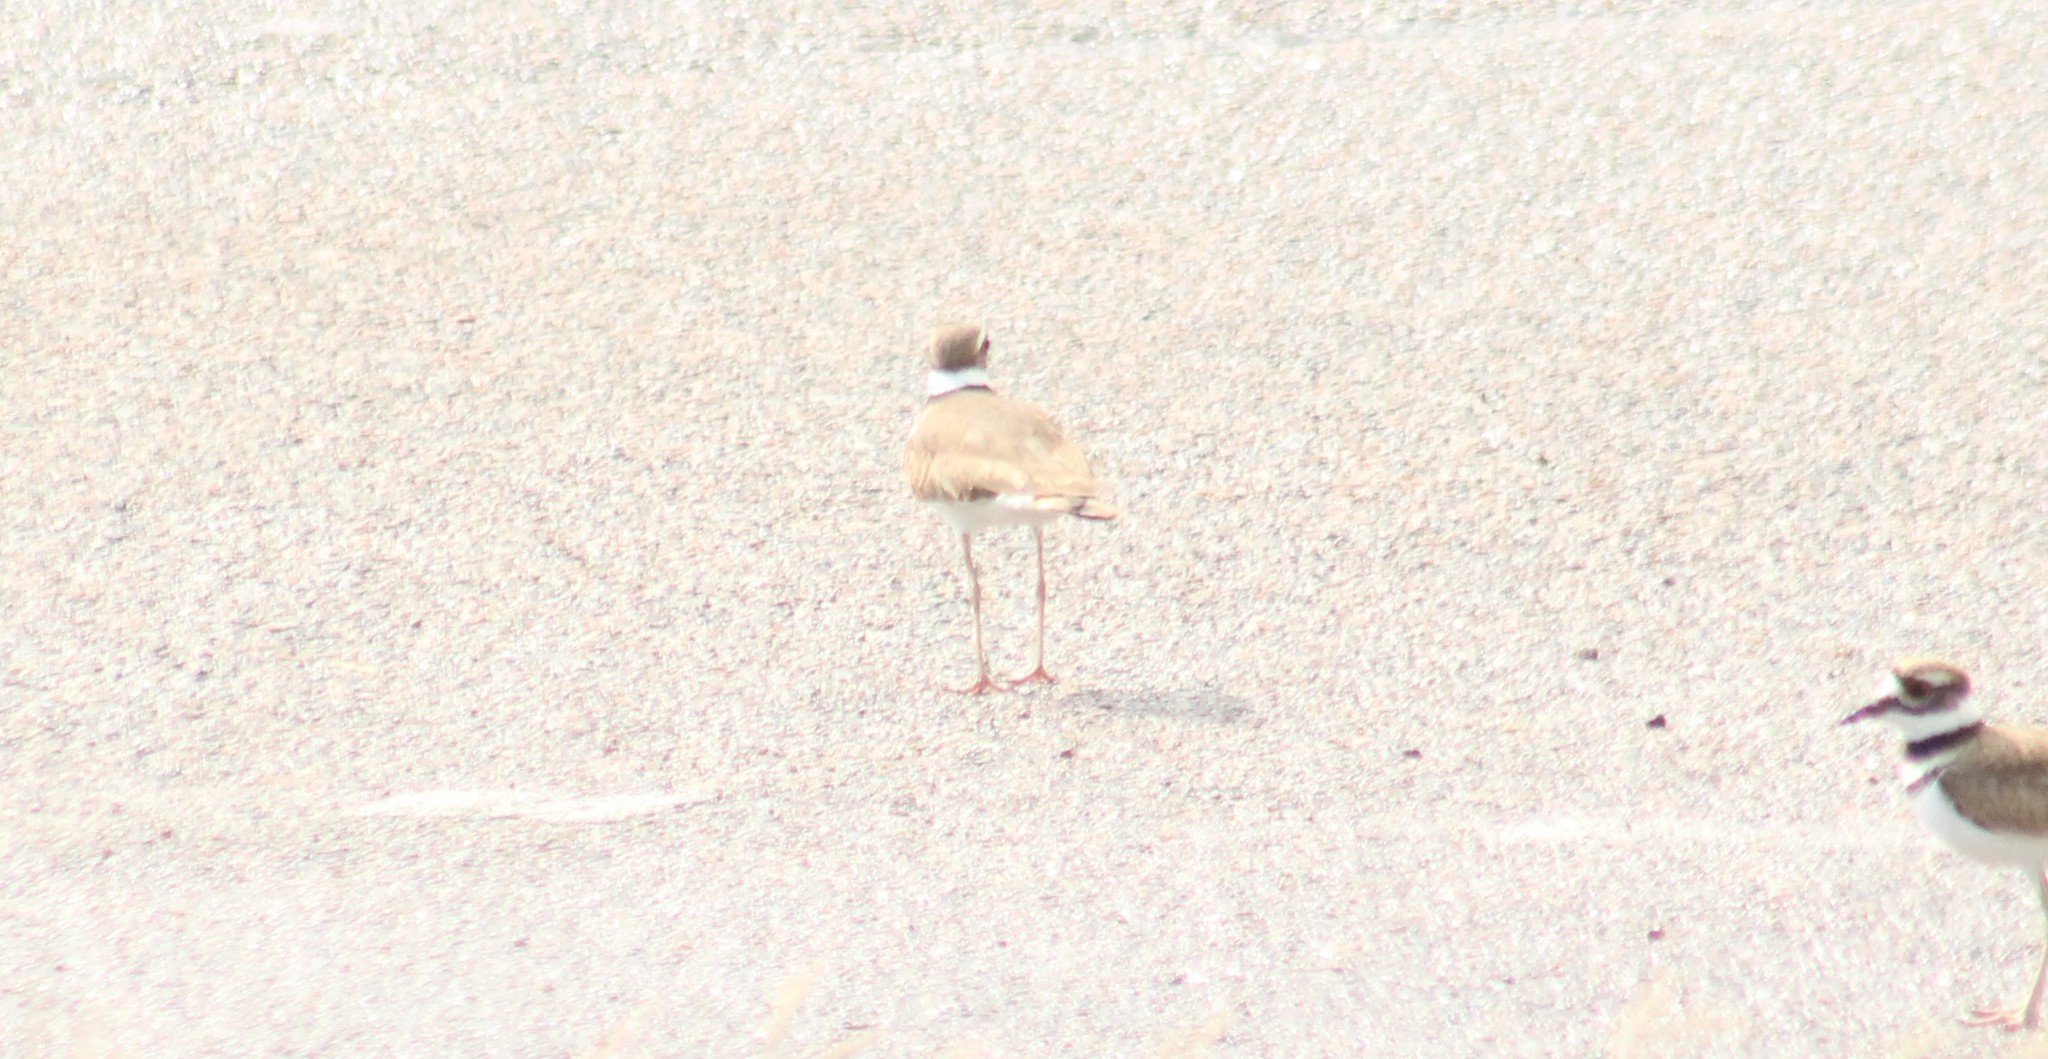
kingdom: Animalia
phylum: Chordata
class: Aves
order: Charadriiformes
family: Charadriidae
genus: Charadrius
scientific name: Charadrius vociferus
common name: Killdeer
